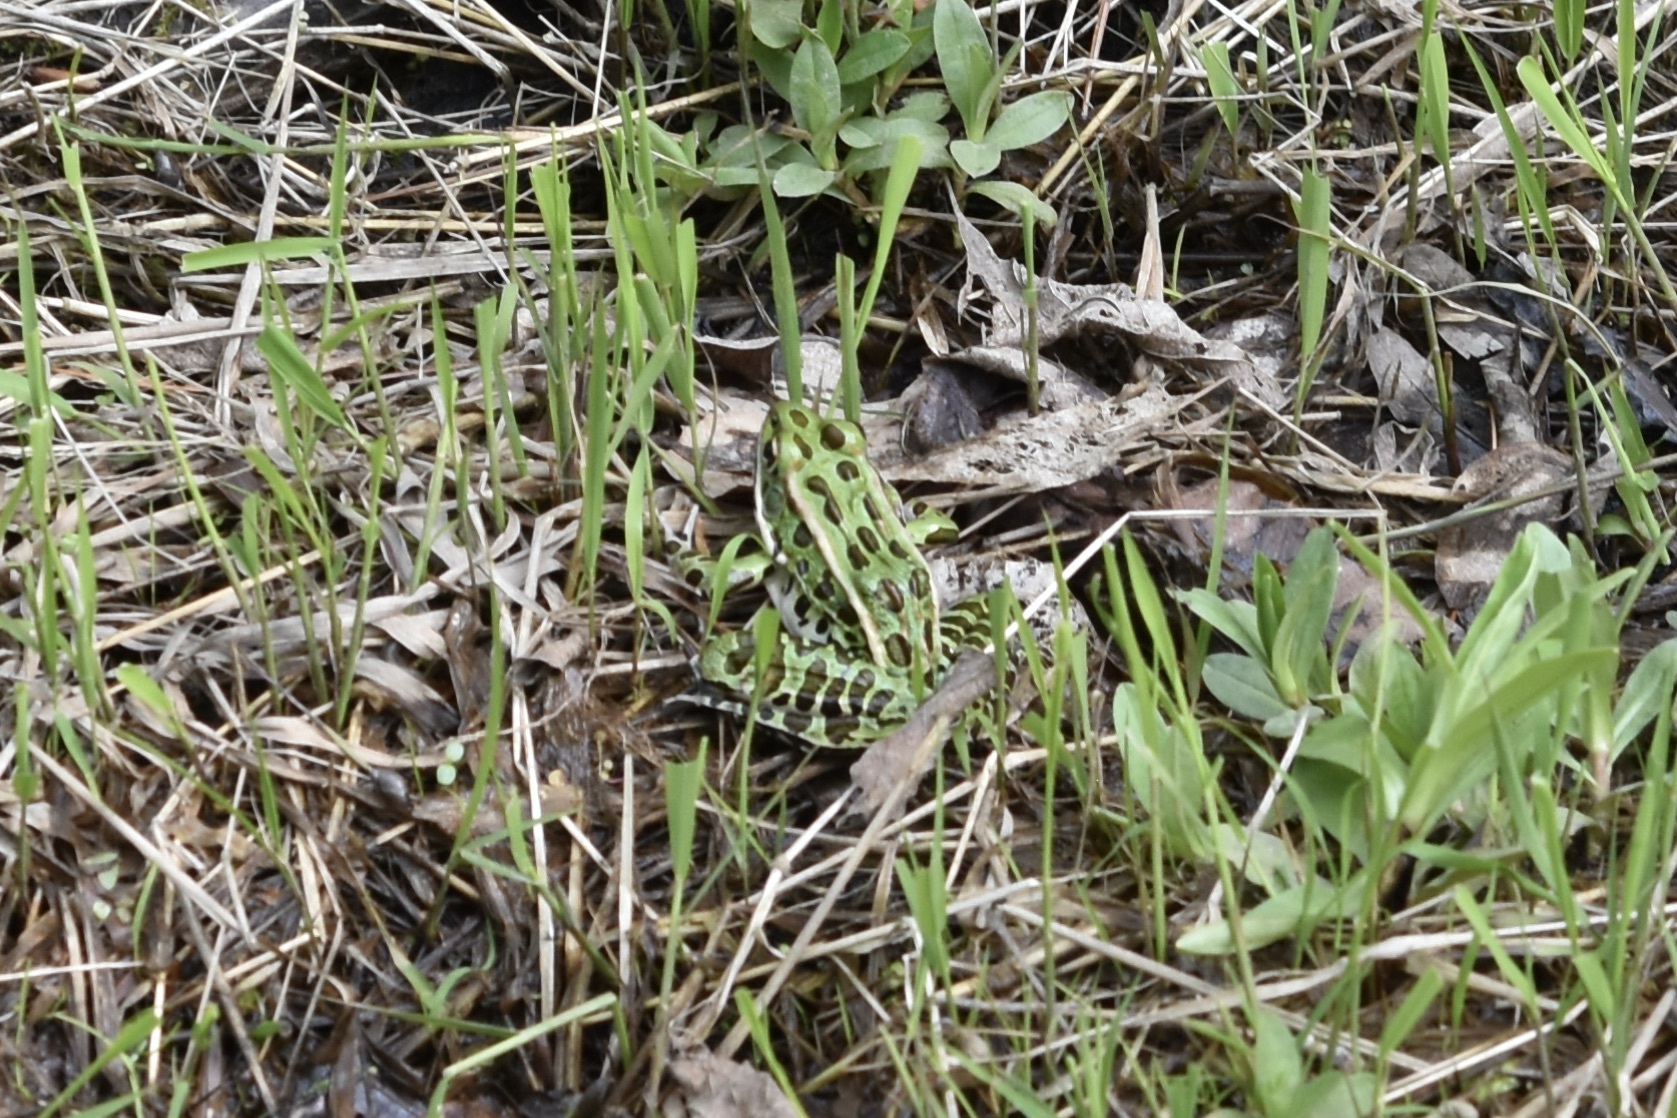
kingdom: Animalia
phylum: Chordata
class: Amphibia
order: Anura
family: Ranidae
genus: Lithobates
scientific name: Lithobates pipiens
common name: Northern leopard frog
